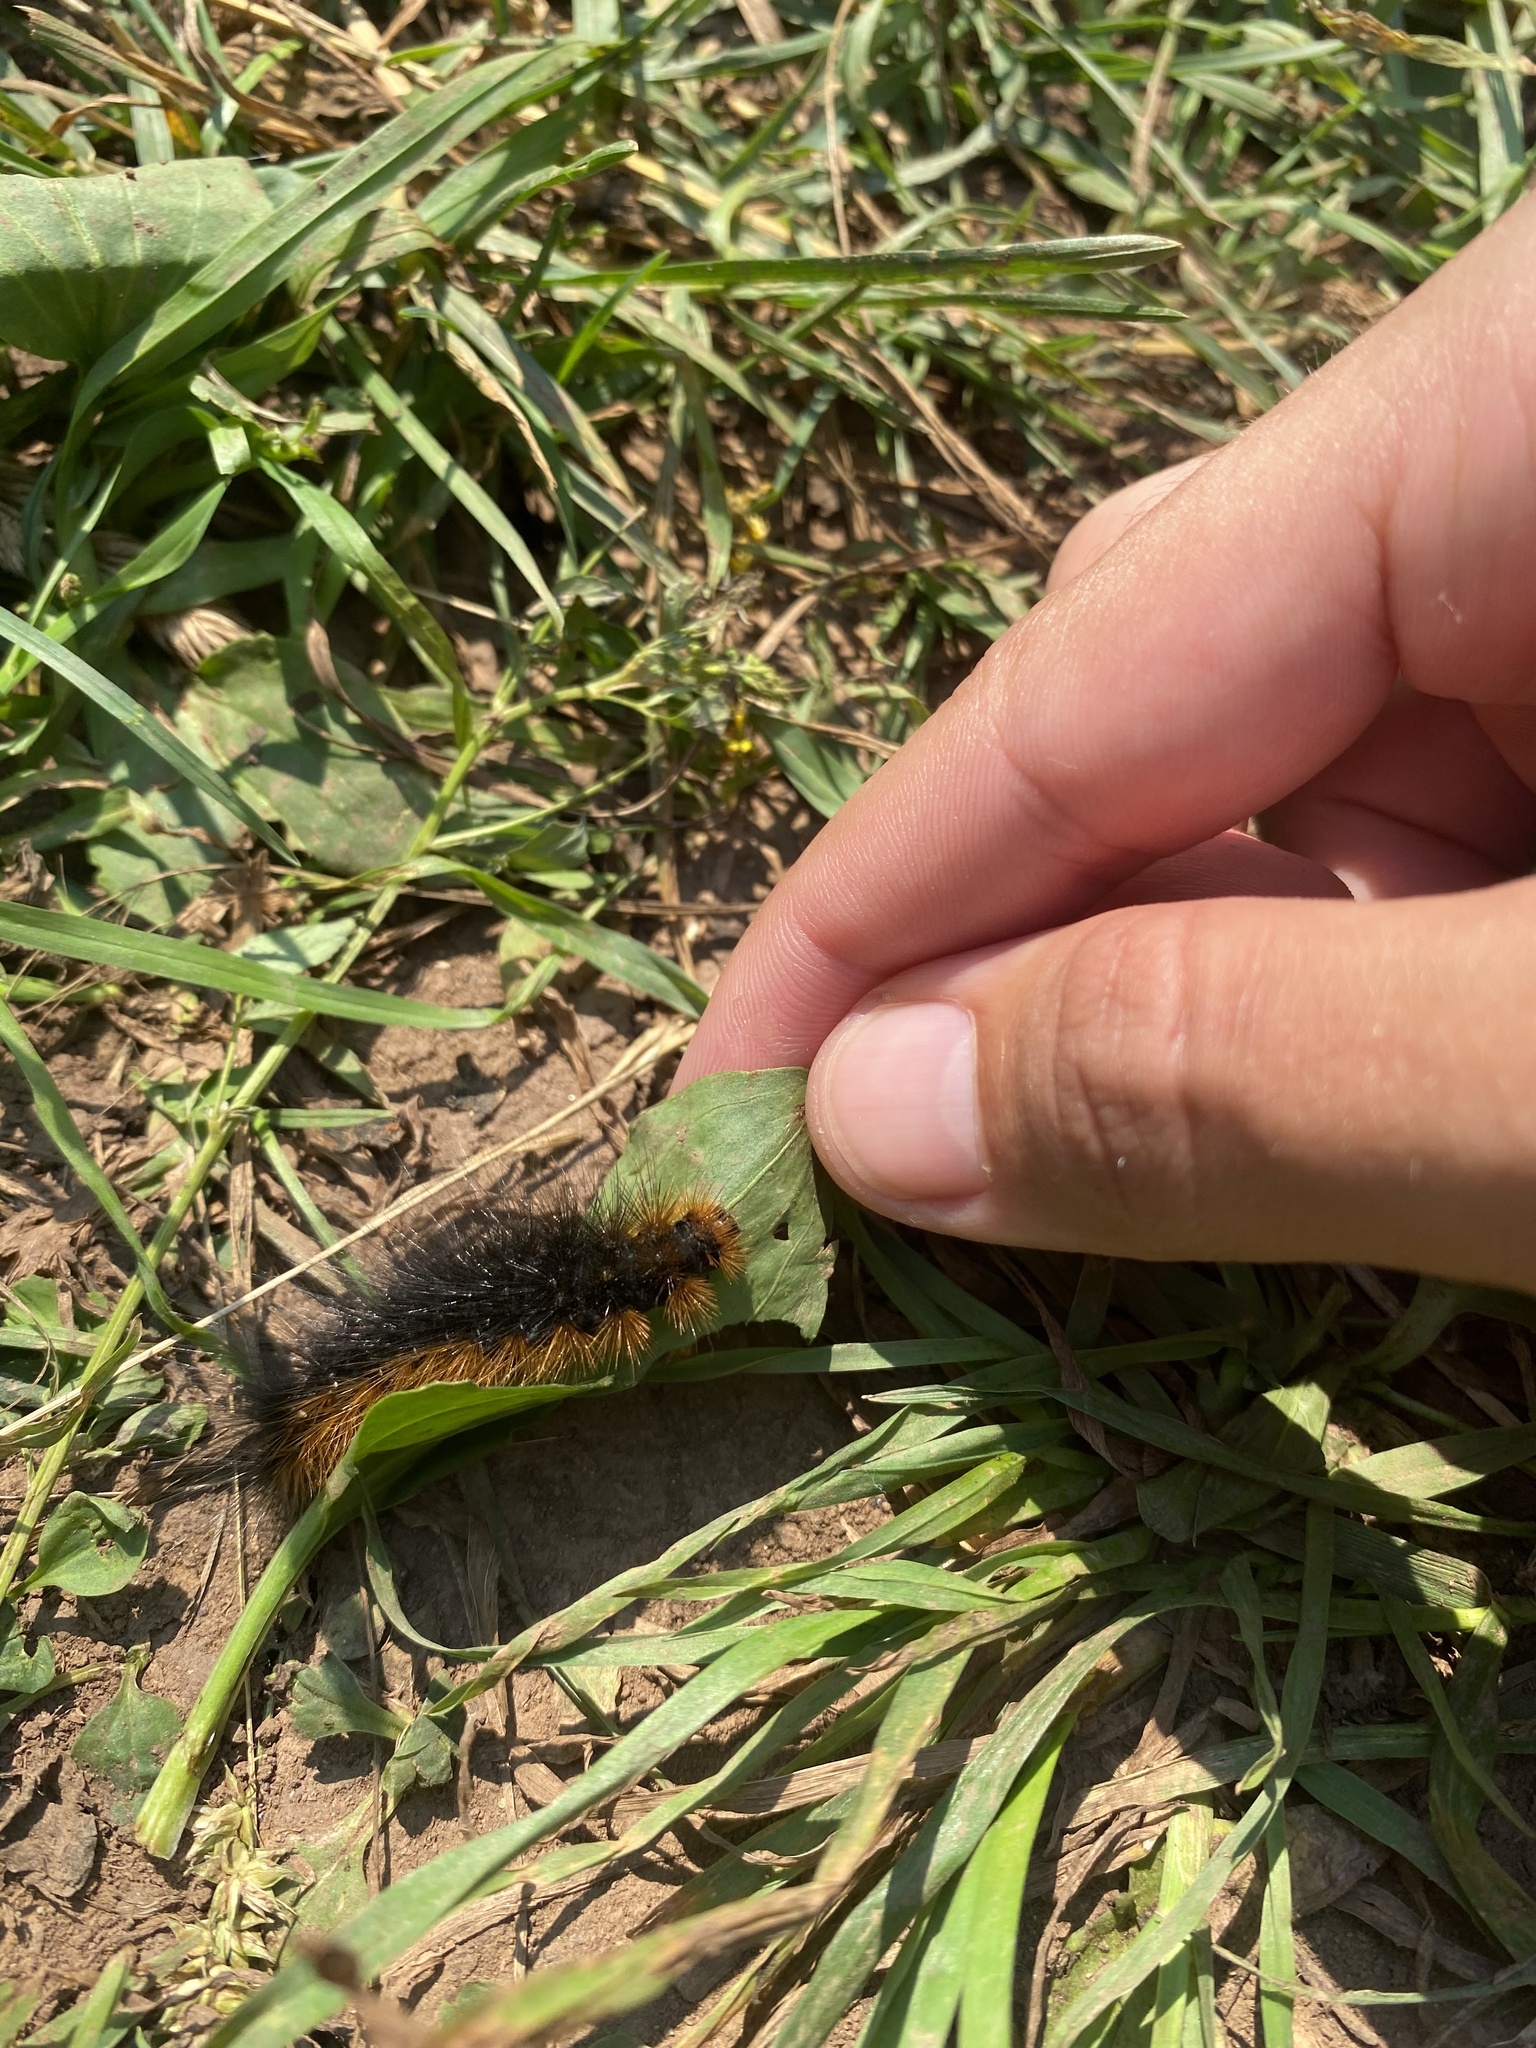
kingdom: Animalia
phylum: Arthropoda
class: Insecta
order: Lepidoptera
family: Erebidae
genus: Arctia
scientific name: Arctia caja
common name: Garden tiger
